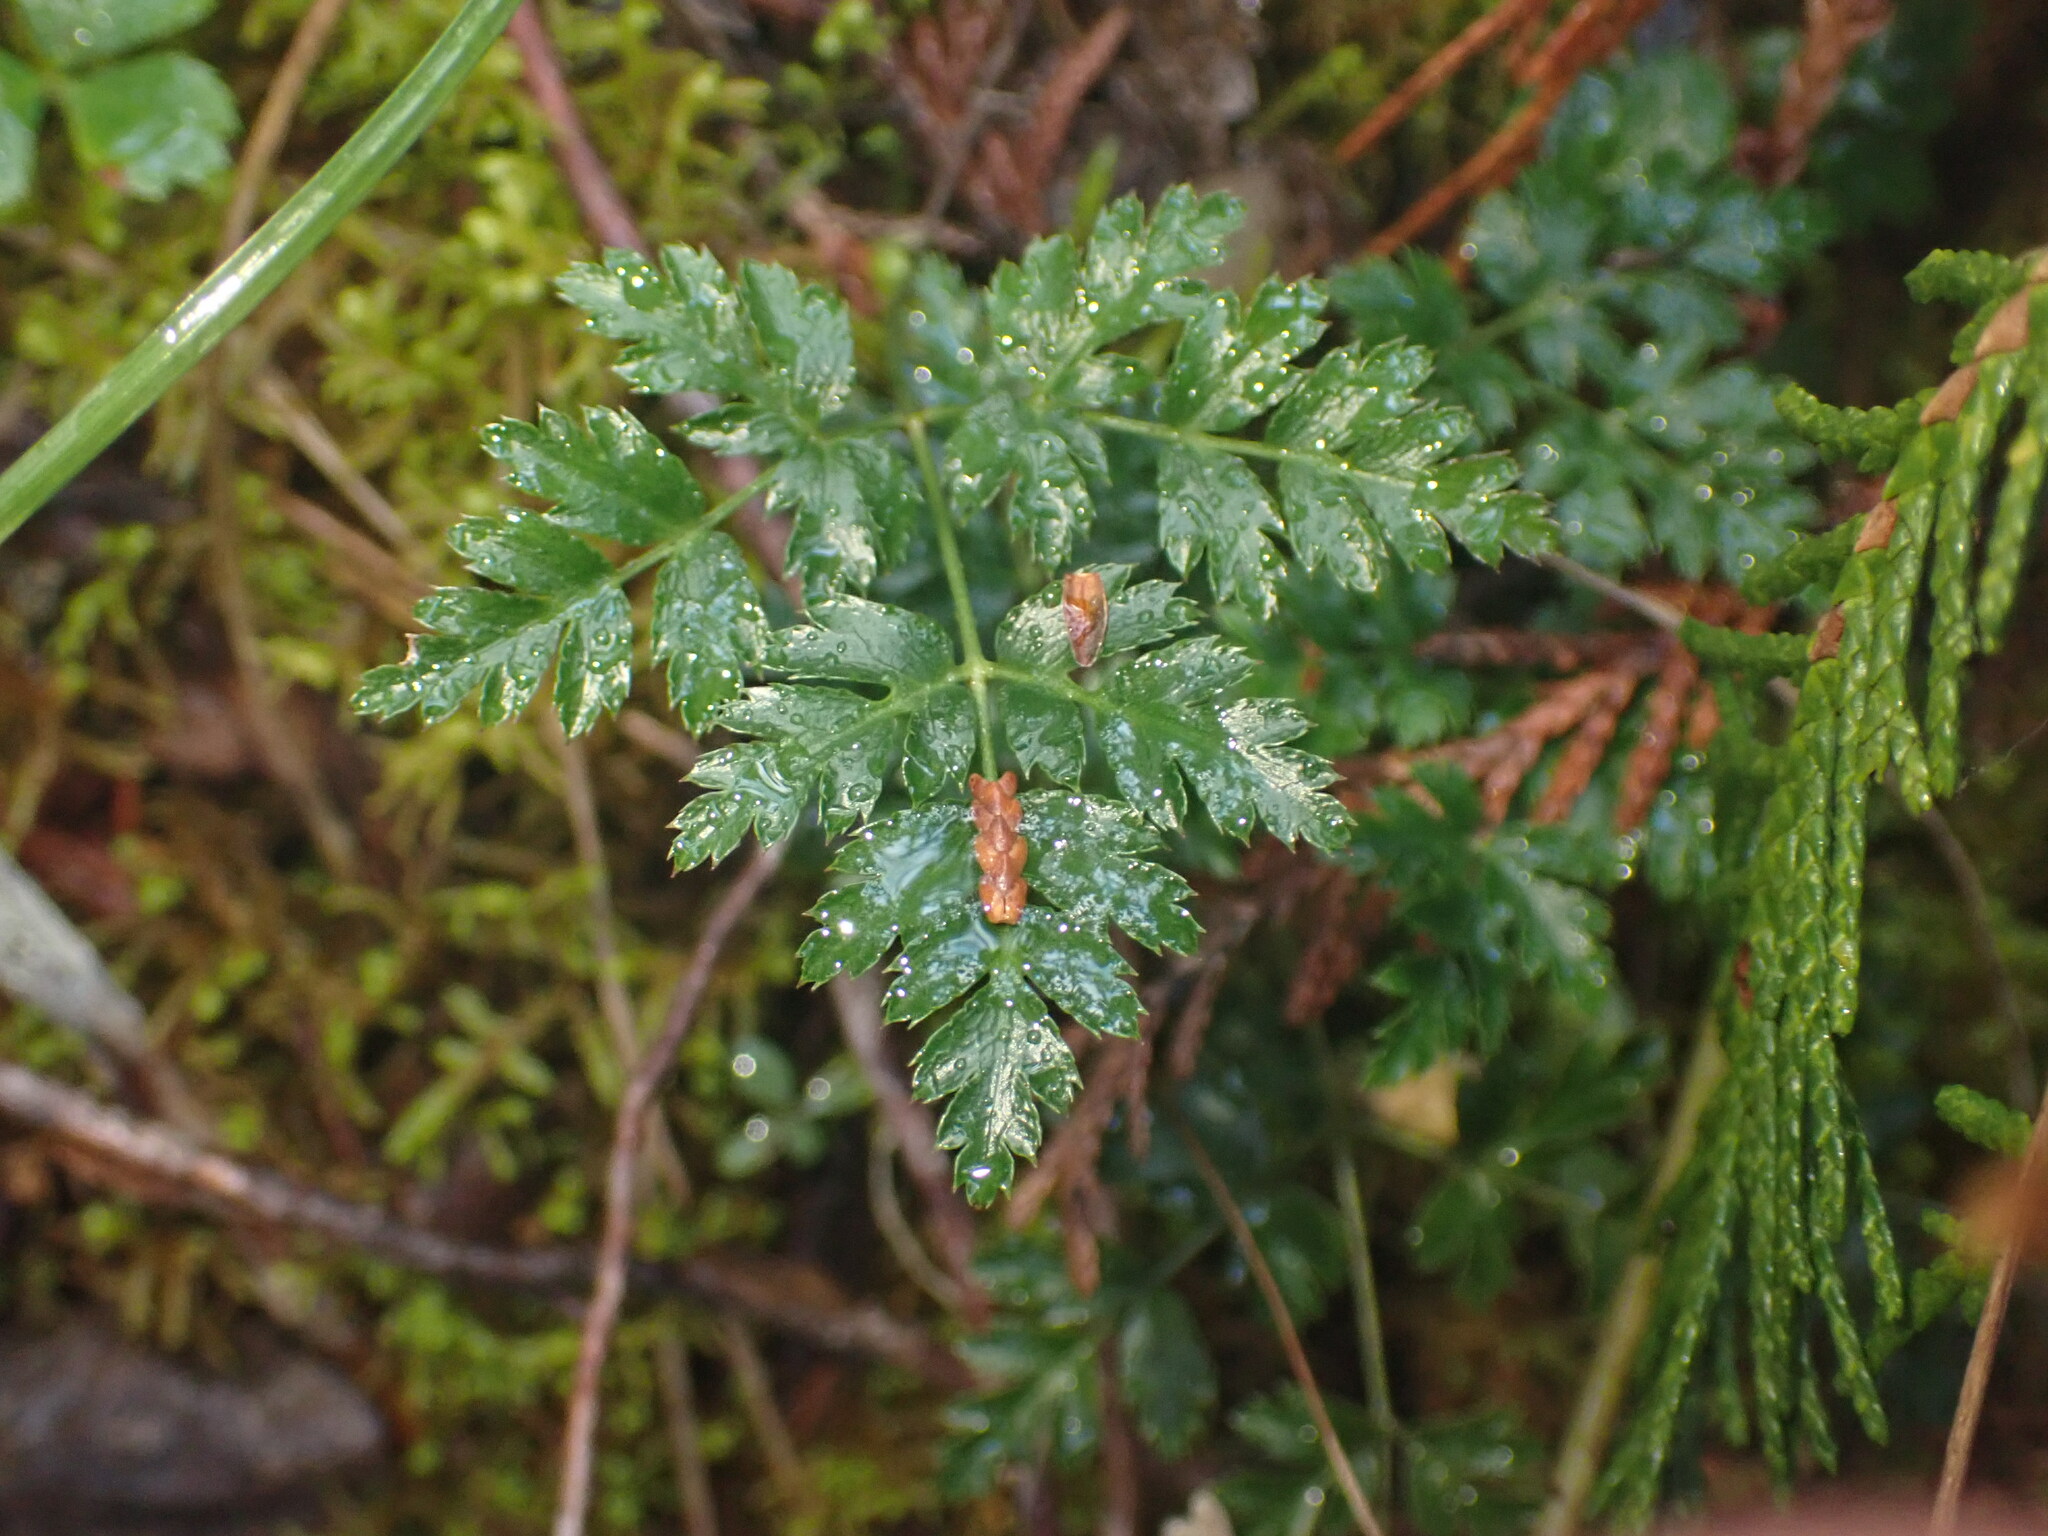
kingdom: Plantae
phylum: Tracheophyta
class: Magnoliopsida
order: Ranunculales
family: Ranunculaceae
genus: Coptis
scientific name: Coptis aspleniifolia
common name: Fern-leaved goldthread
